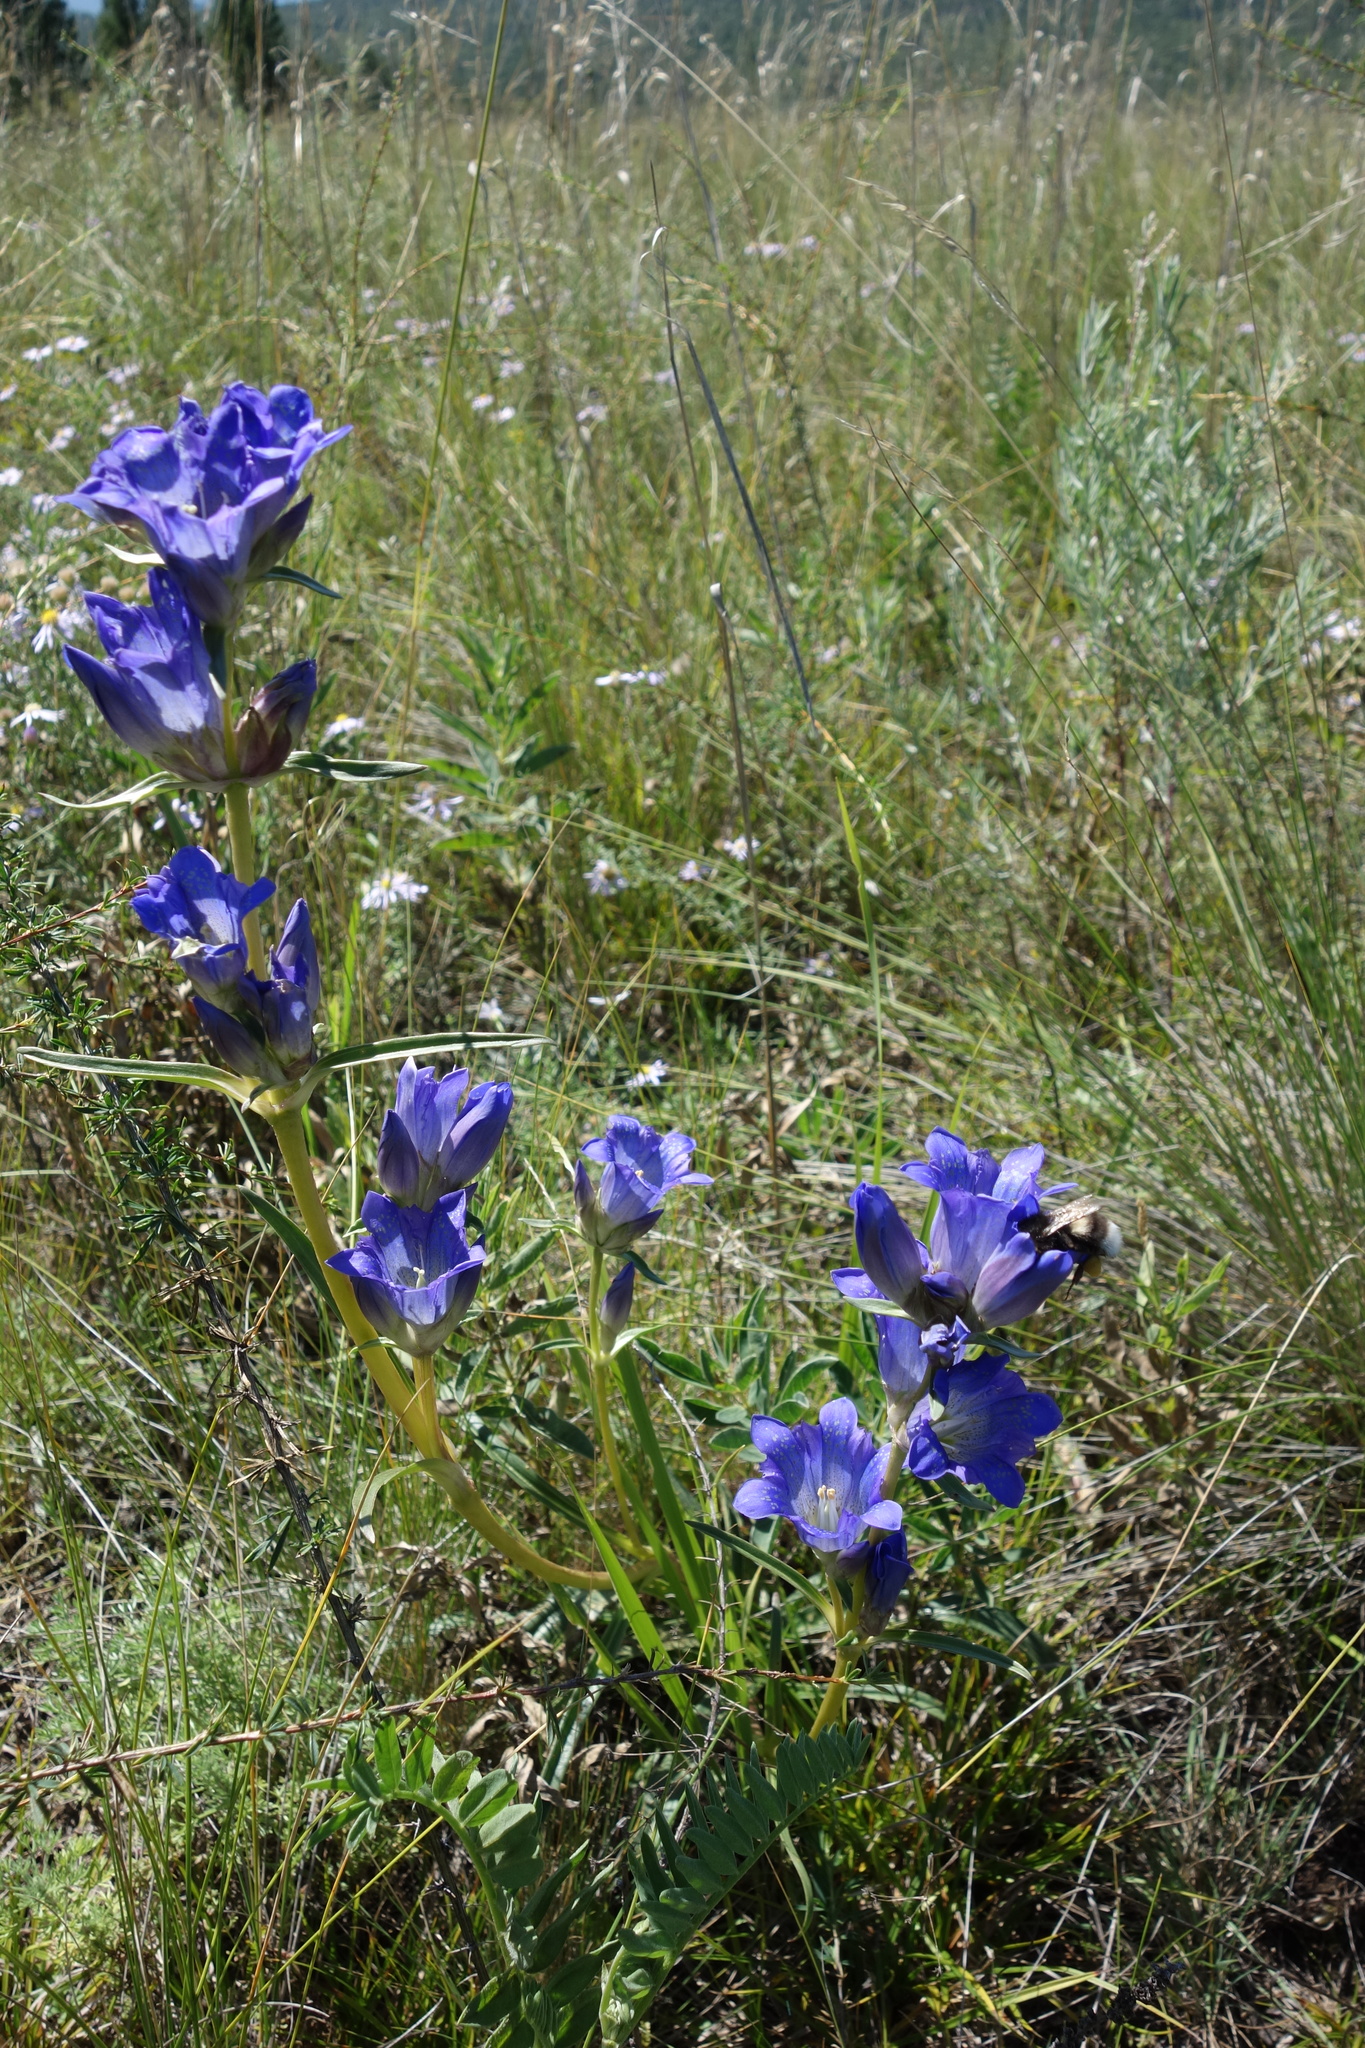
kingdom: Plantae
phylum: Tracheophyta
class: Magnoliopsida
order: Gentianales
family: Gentianaceae
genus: Gentiana
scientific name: Gentiana decumbens
